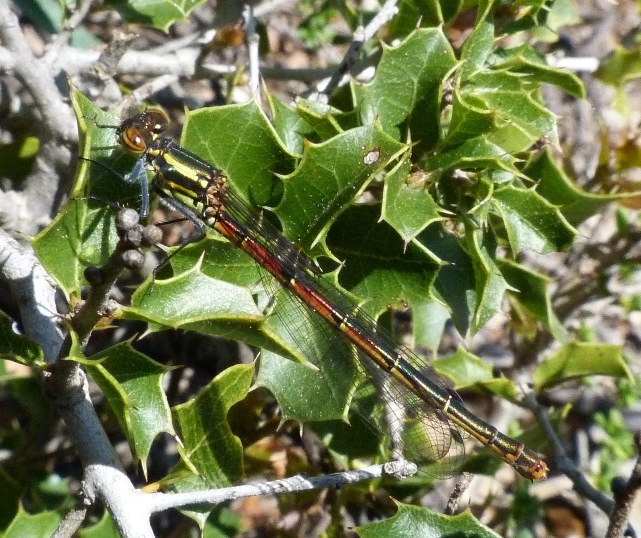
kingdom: Animalia
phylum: Arthropoda
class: Insecta
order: Odonata
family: Coenagrionidae
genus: Pyrrhosoma
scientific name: Pyrrhosoma nymphula
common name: Large red damsel
